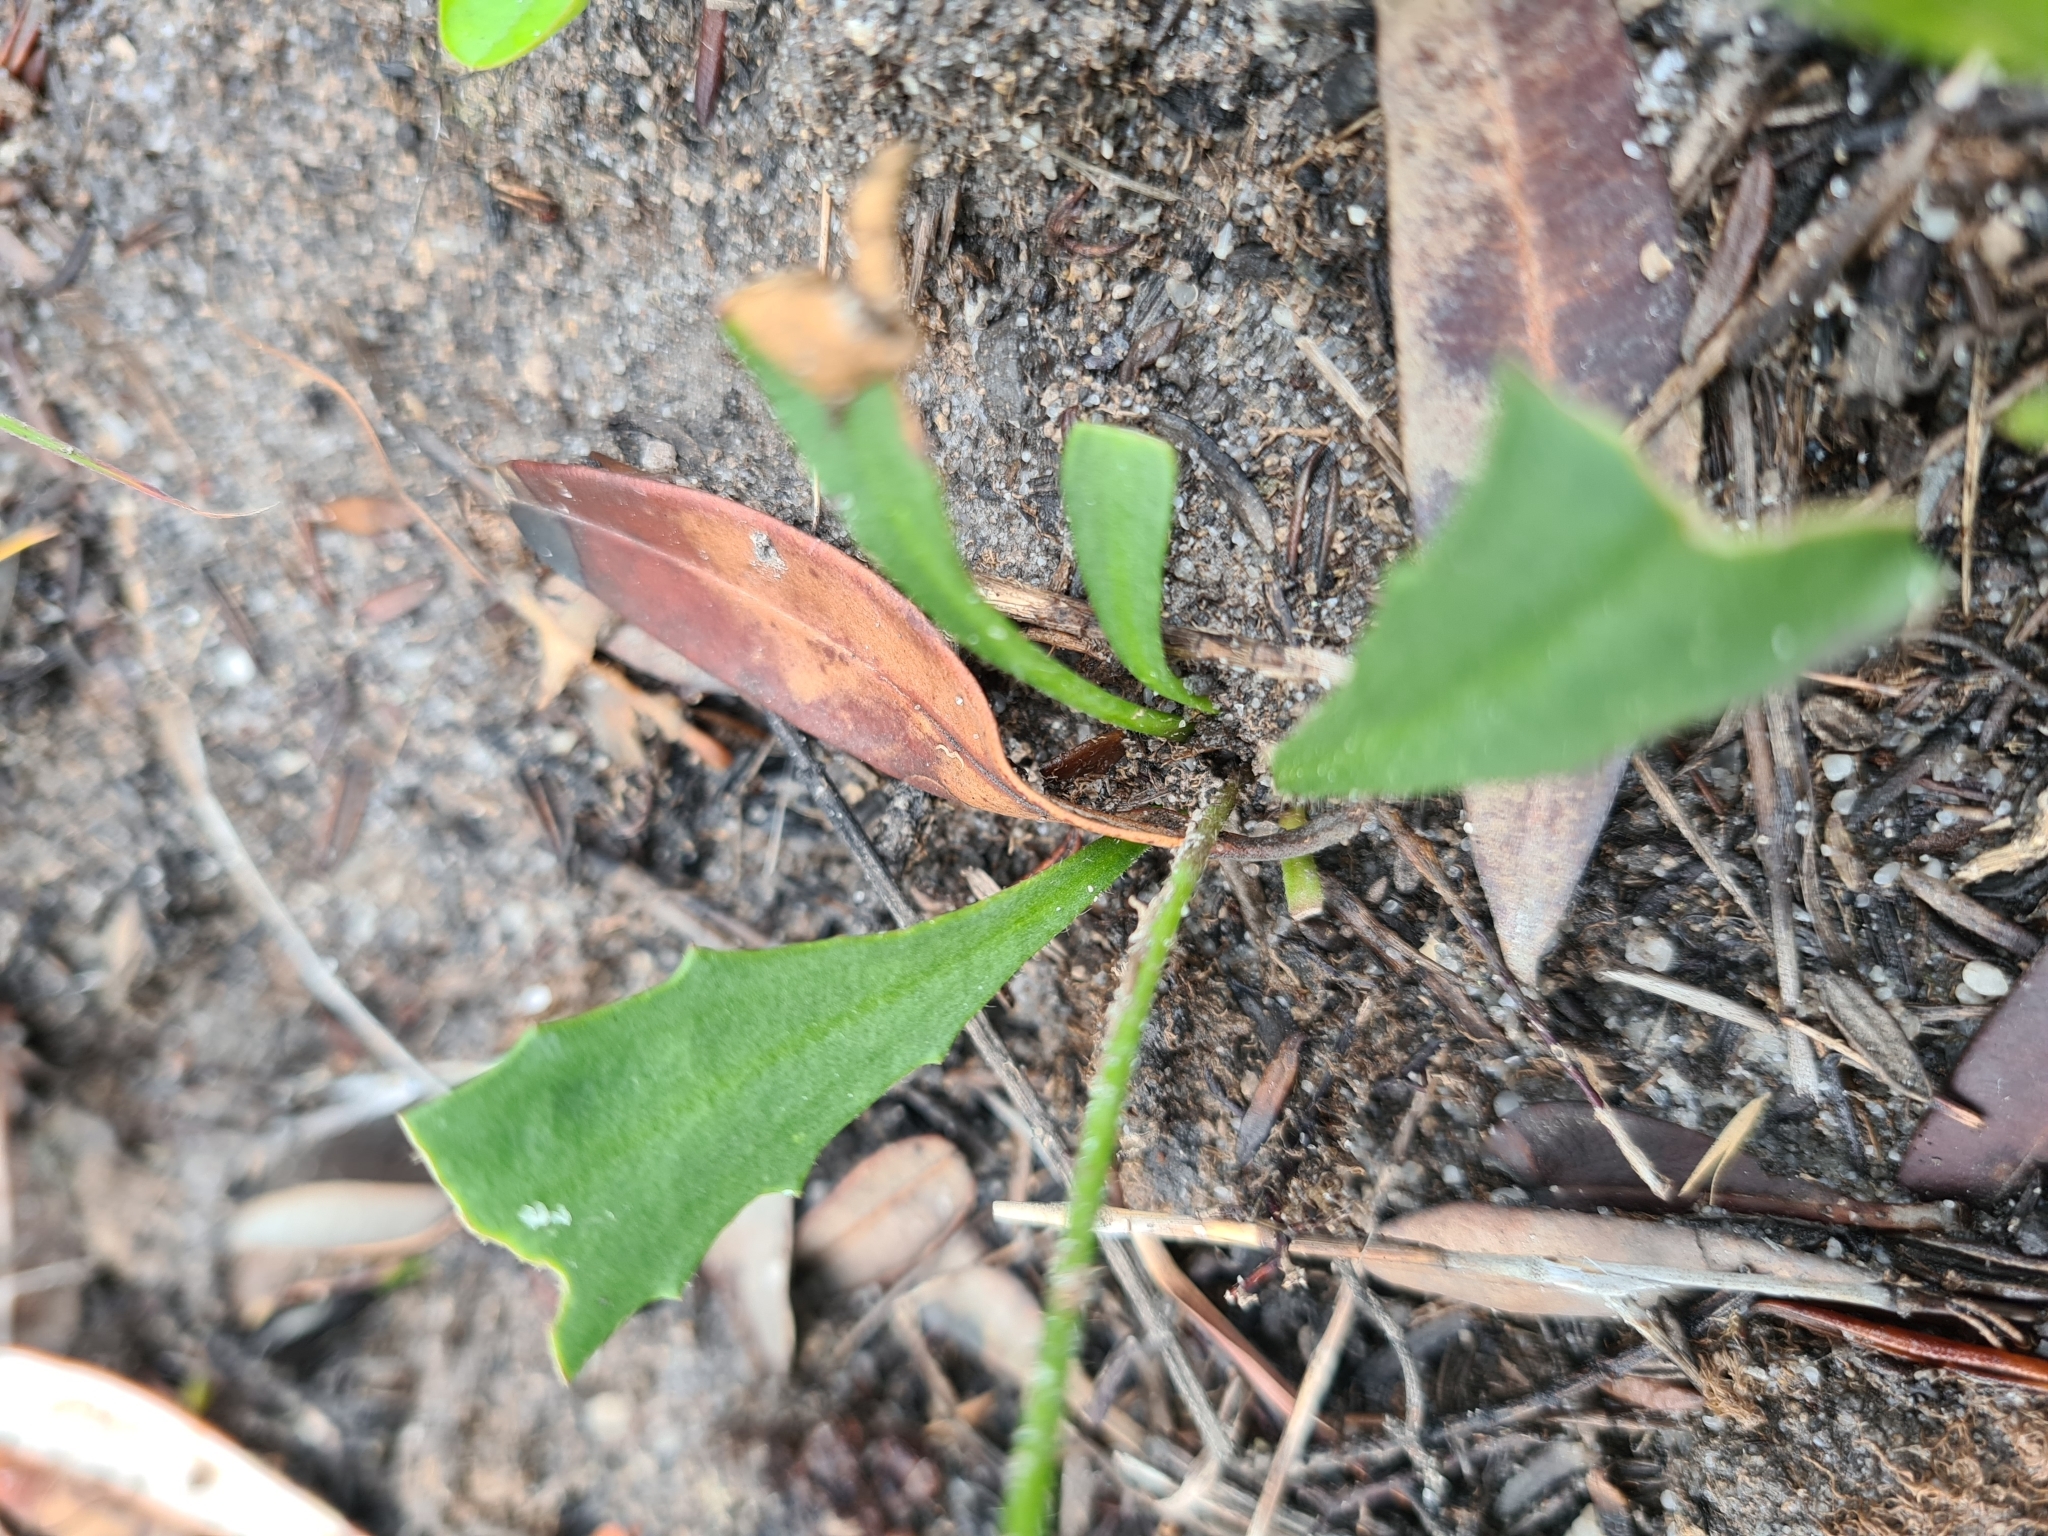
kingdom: Plantae
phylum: Tracheophyta
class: Magnoliopsida
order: Asterales
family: Goodeniaceae
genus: Goodenia
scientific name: Goodenia paniculata
